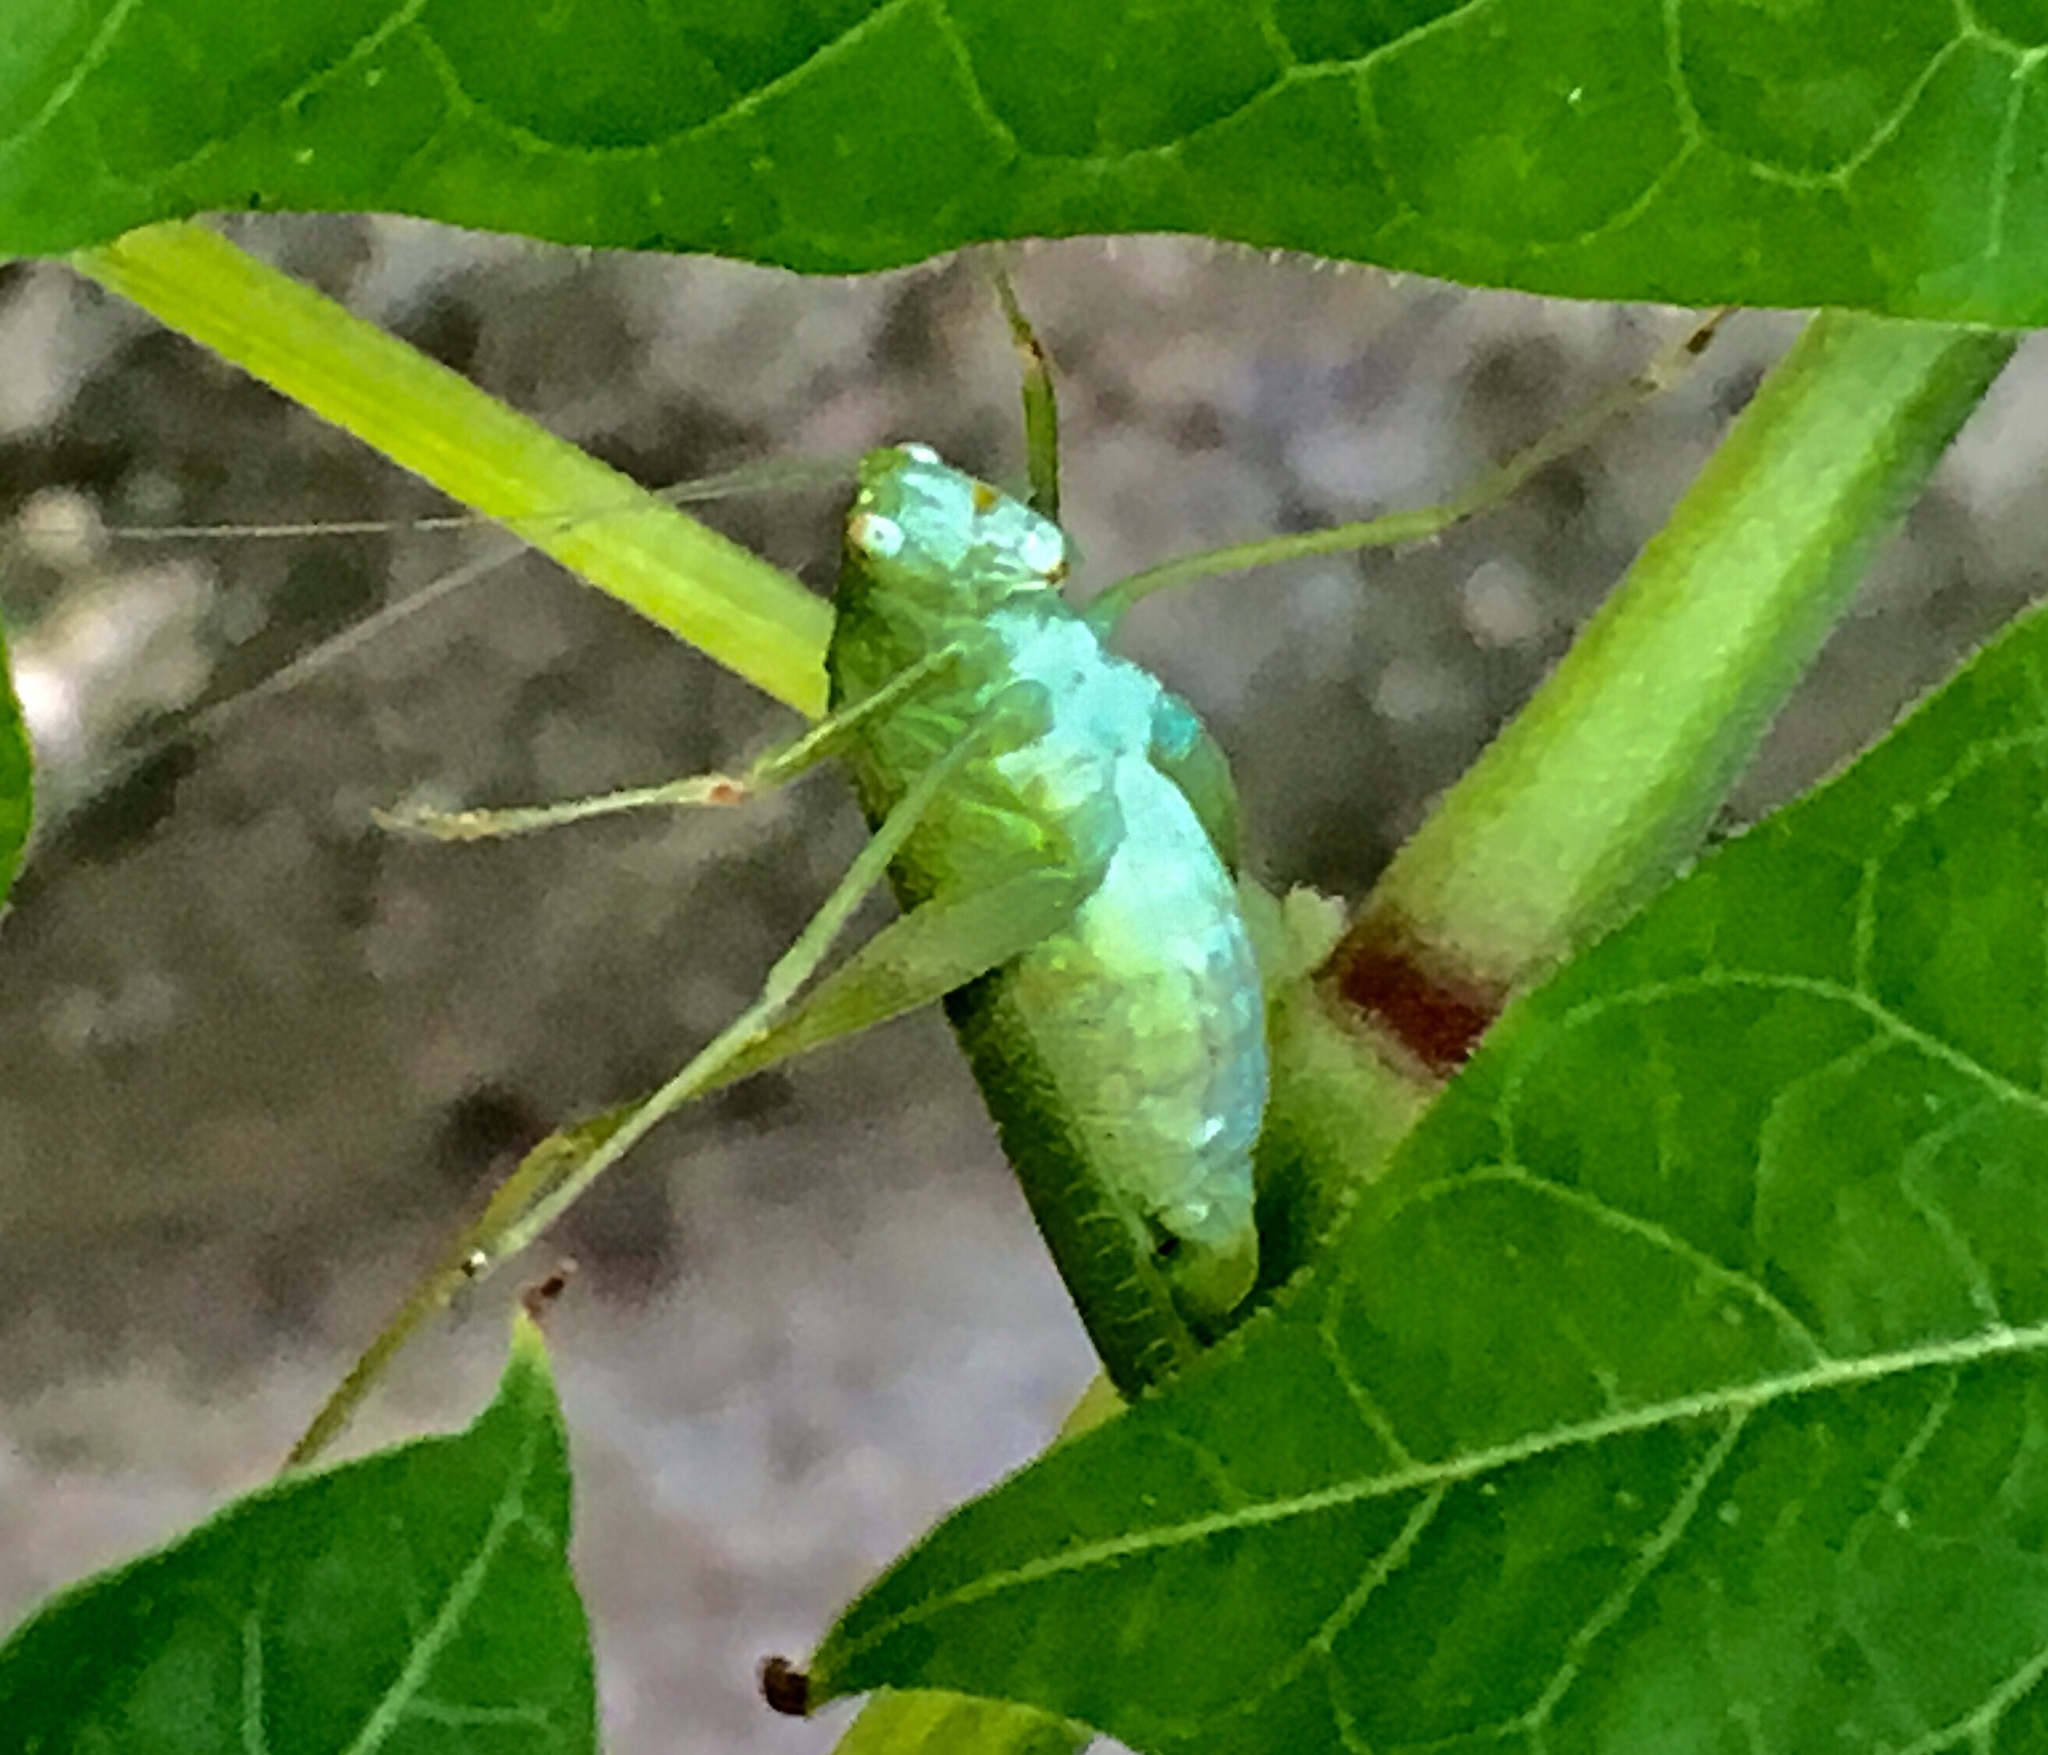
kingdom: Animalia
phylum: Arthropoda
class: Insecta
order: Orthoptera
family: Tettigoniidae
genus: Phaneroptera
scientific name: Phaneroptera nana
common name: Southern sickle bush-cricket
